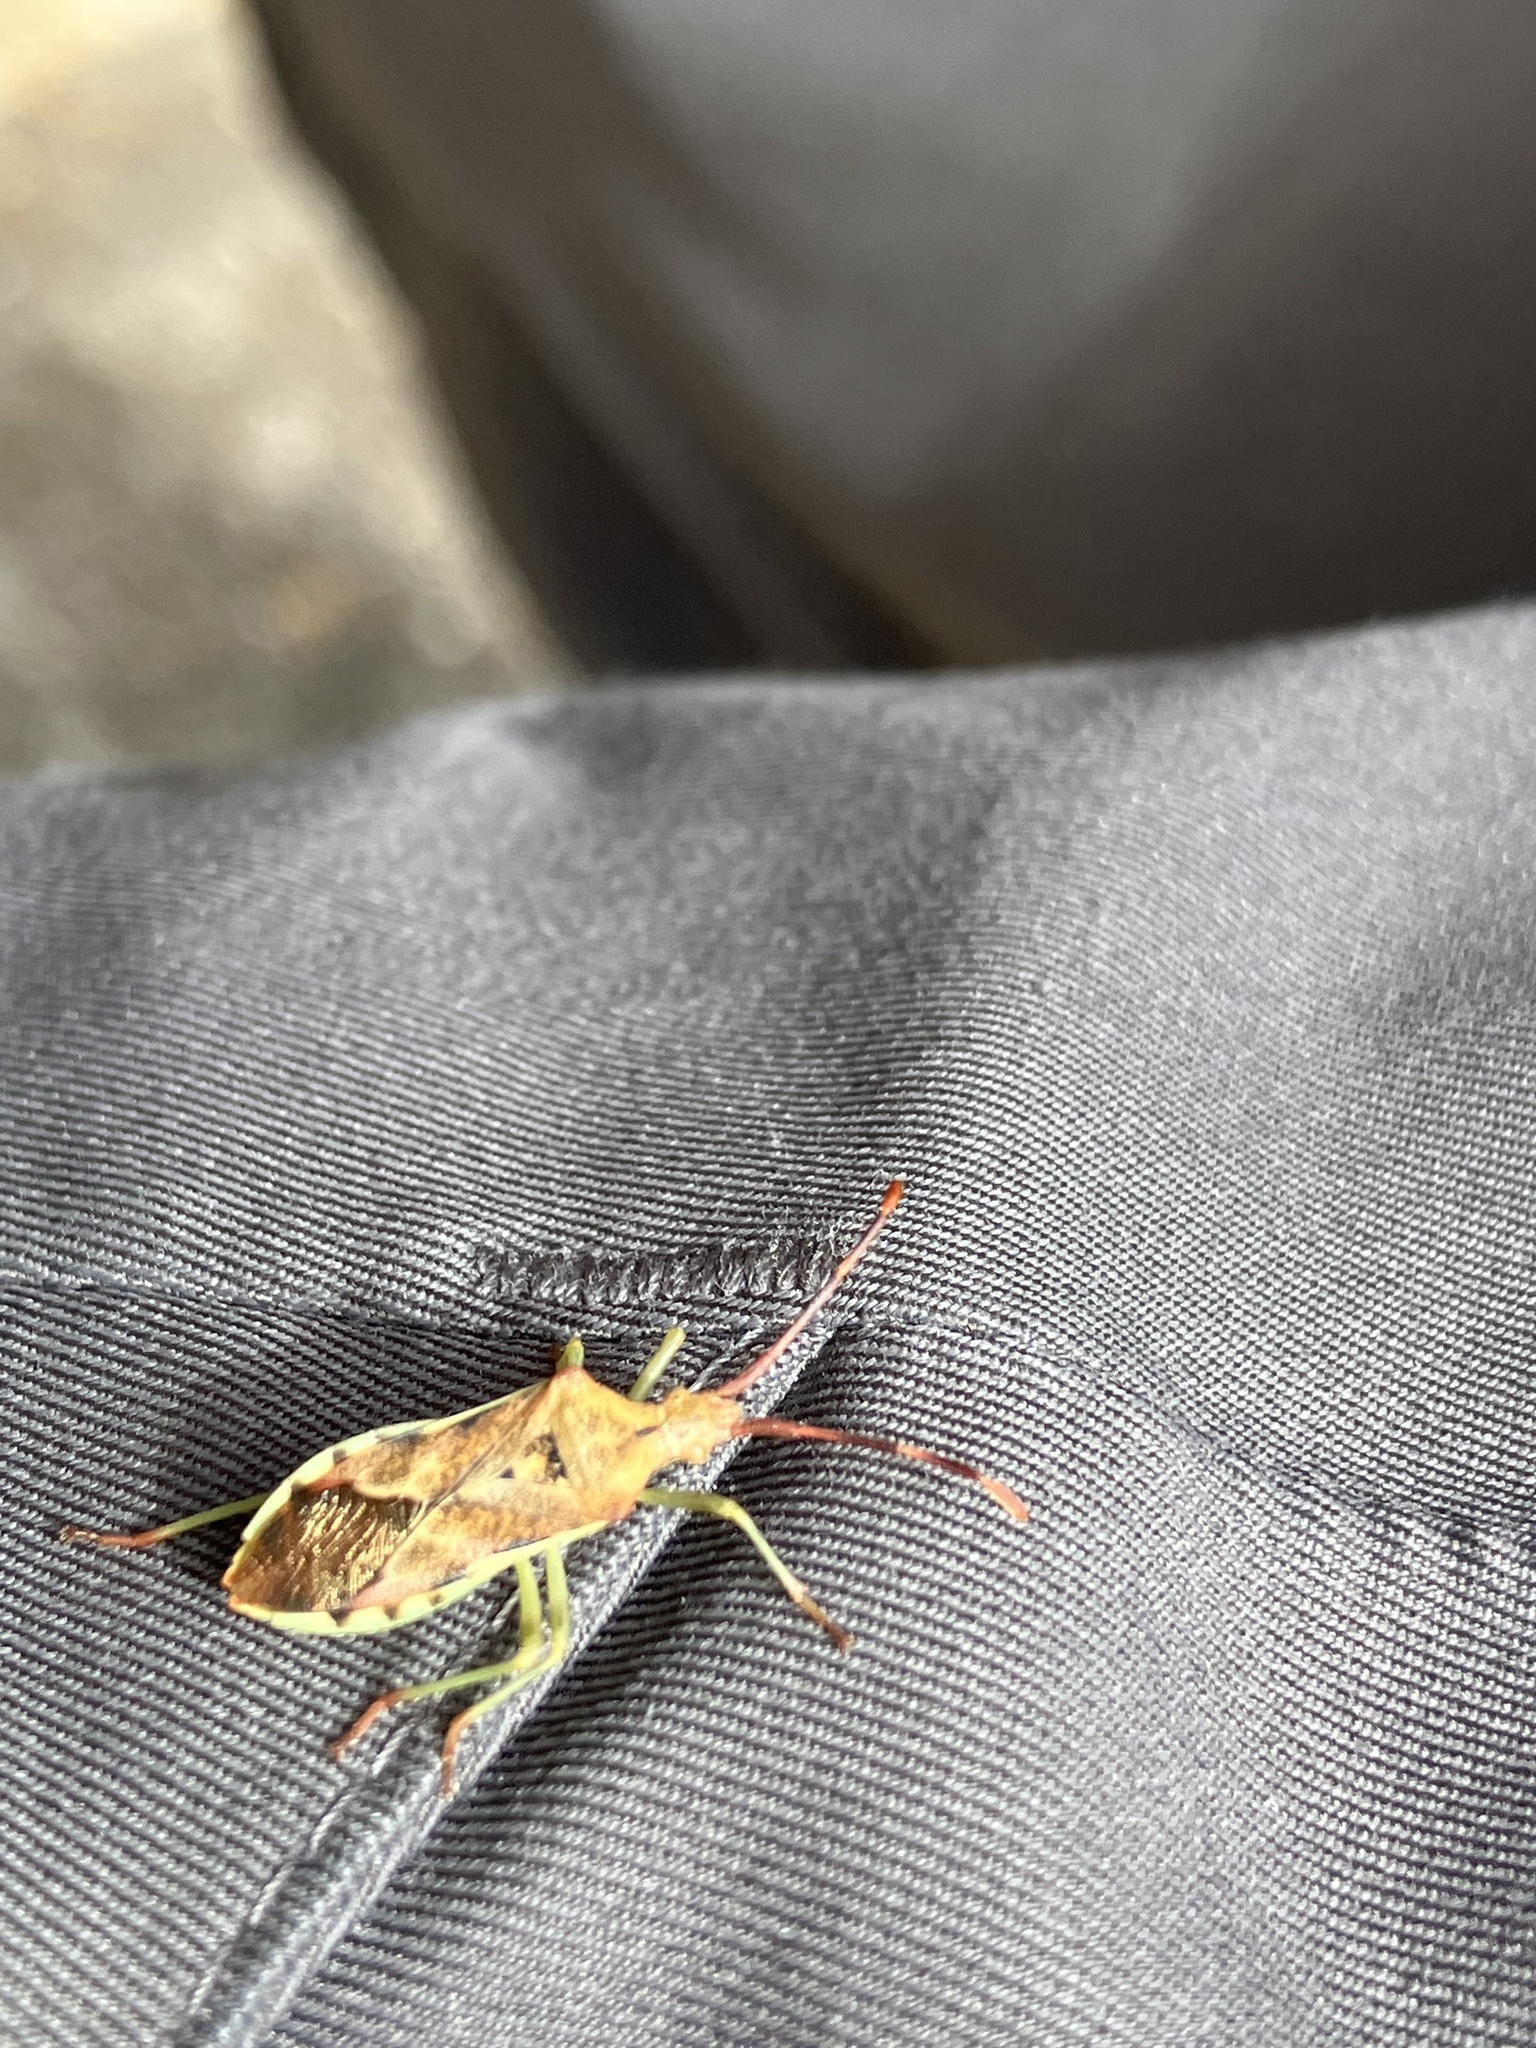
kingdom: Animalia
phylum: Arthropoda
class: Insecta
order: Hemiptera
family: Coreidae
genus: Gonocerus
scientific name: Gonocerus juniperi
